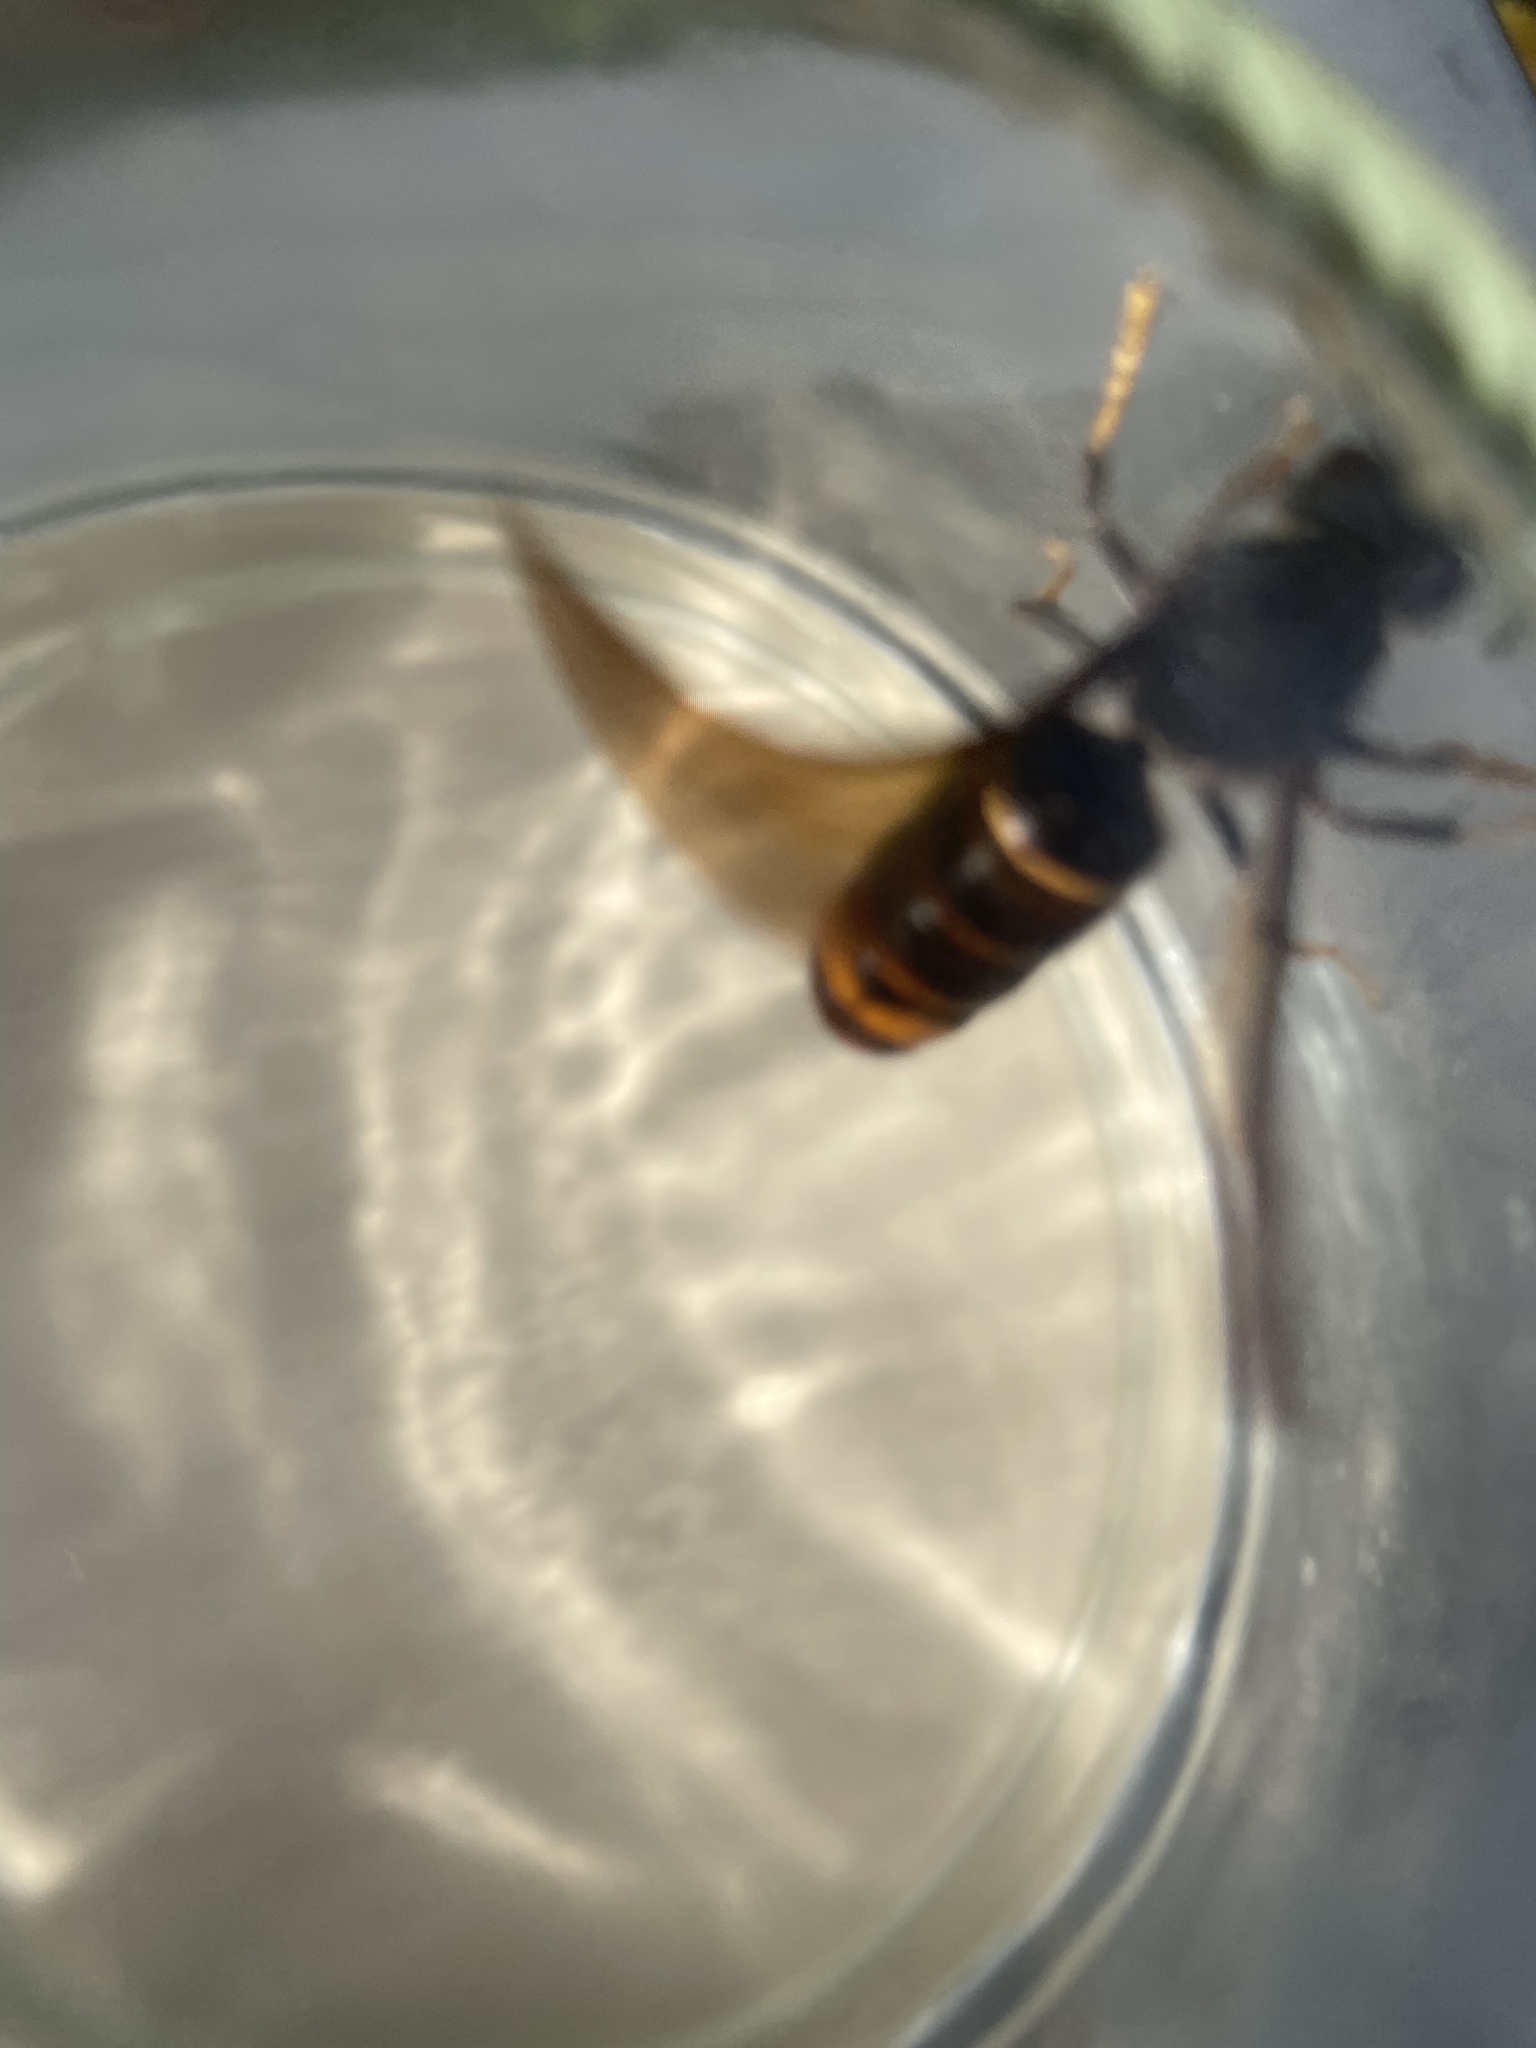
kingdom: Animalia
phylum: Arthropoda
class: Insecta
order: Hymenoptera
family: Vespidae
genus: Vespa
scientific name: Vespa velutina
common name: Asian hornet
